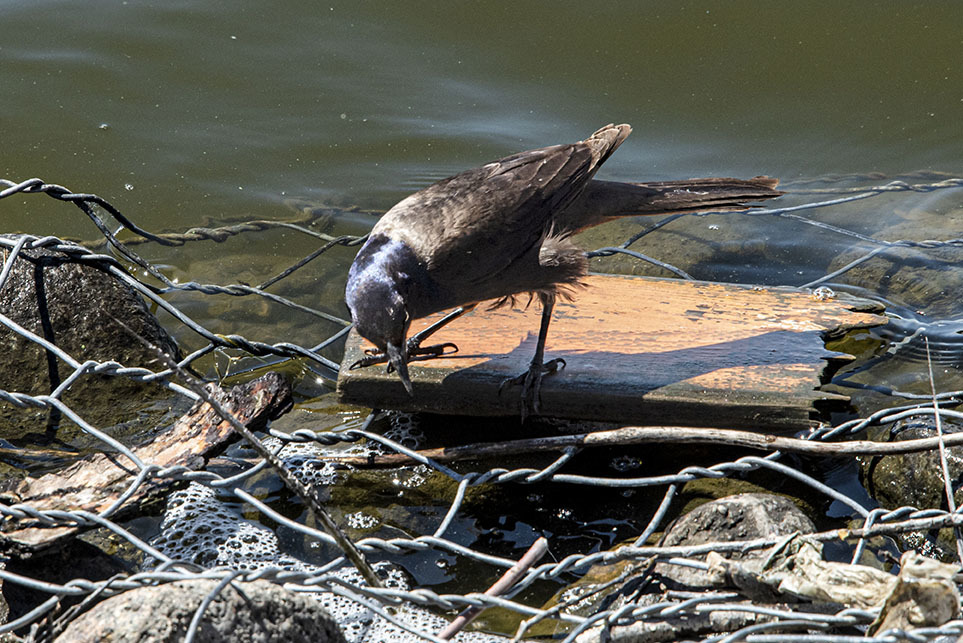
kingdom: Animalia
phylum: Chordata
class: Aves
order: Passeriformes
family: Icteridae
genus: Quiscalus
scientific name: Quiscalus quiscula
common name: Common grackle
